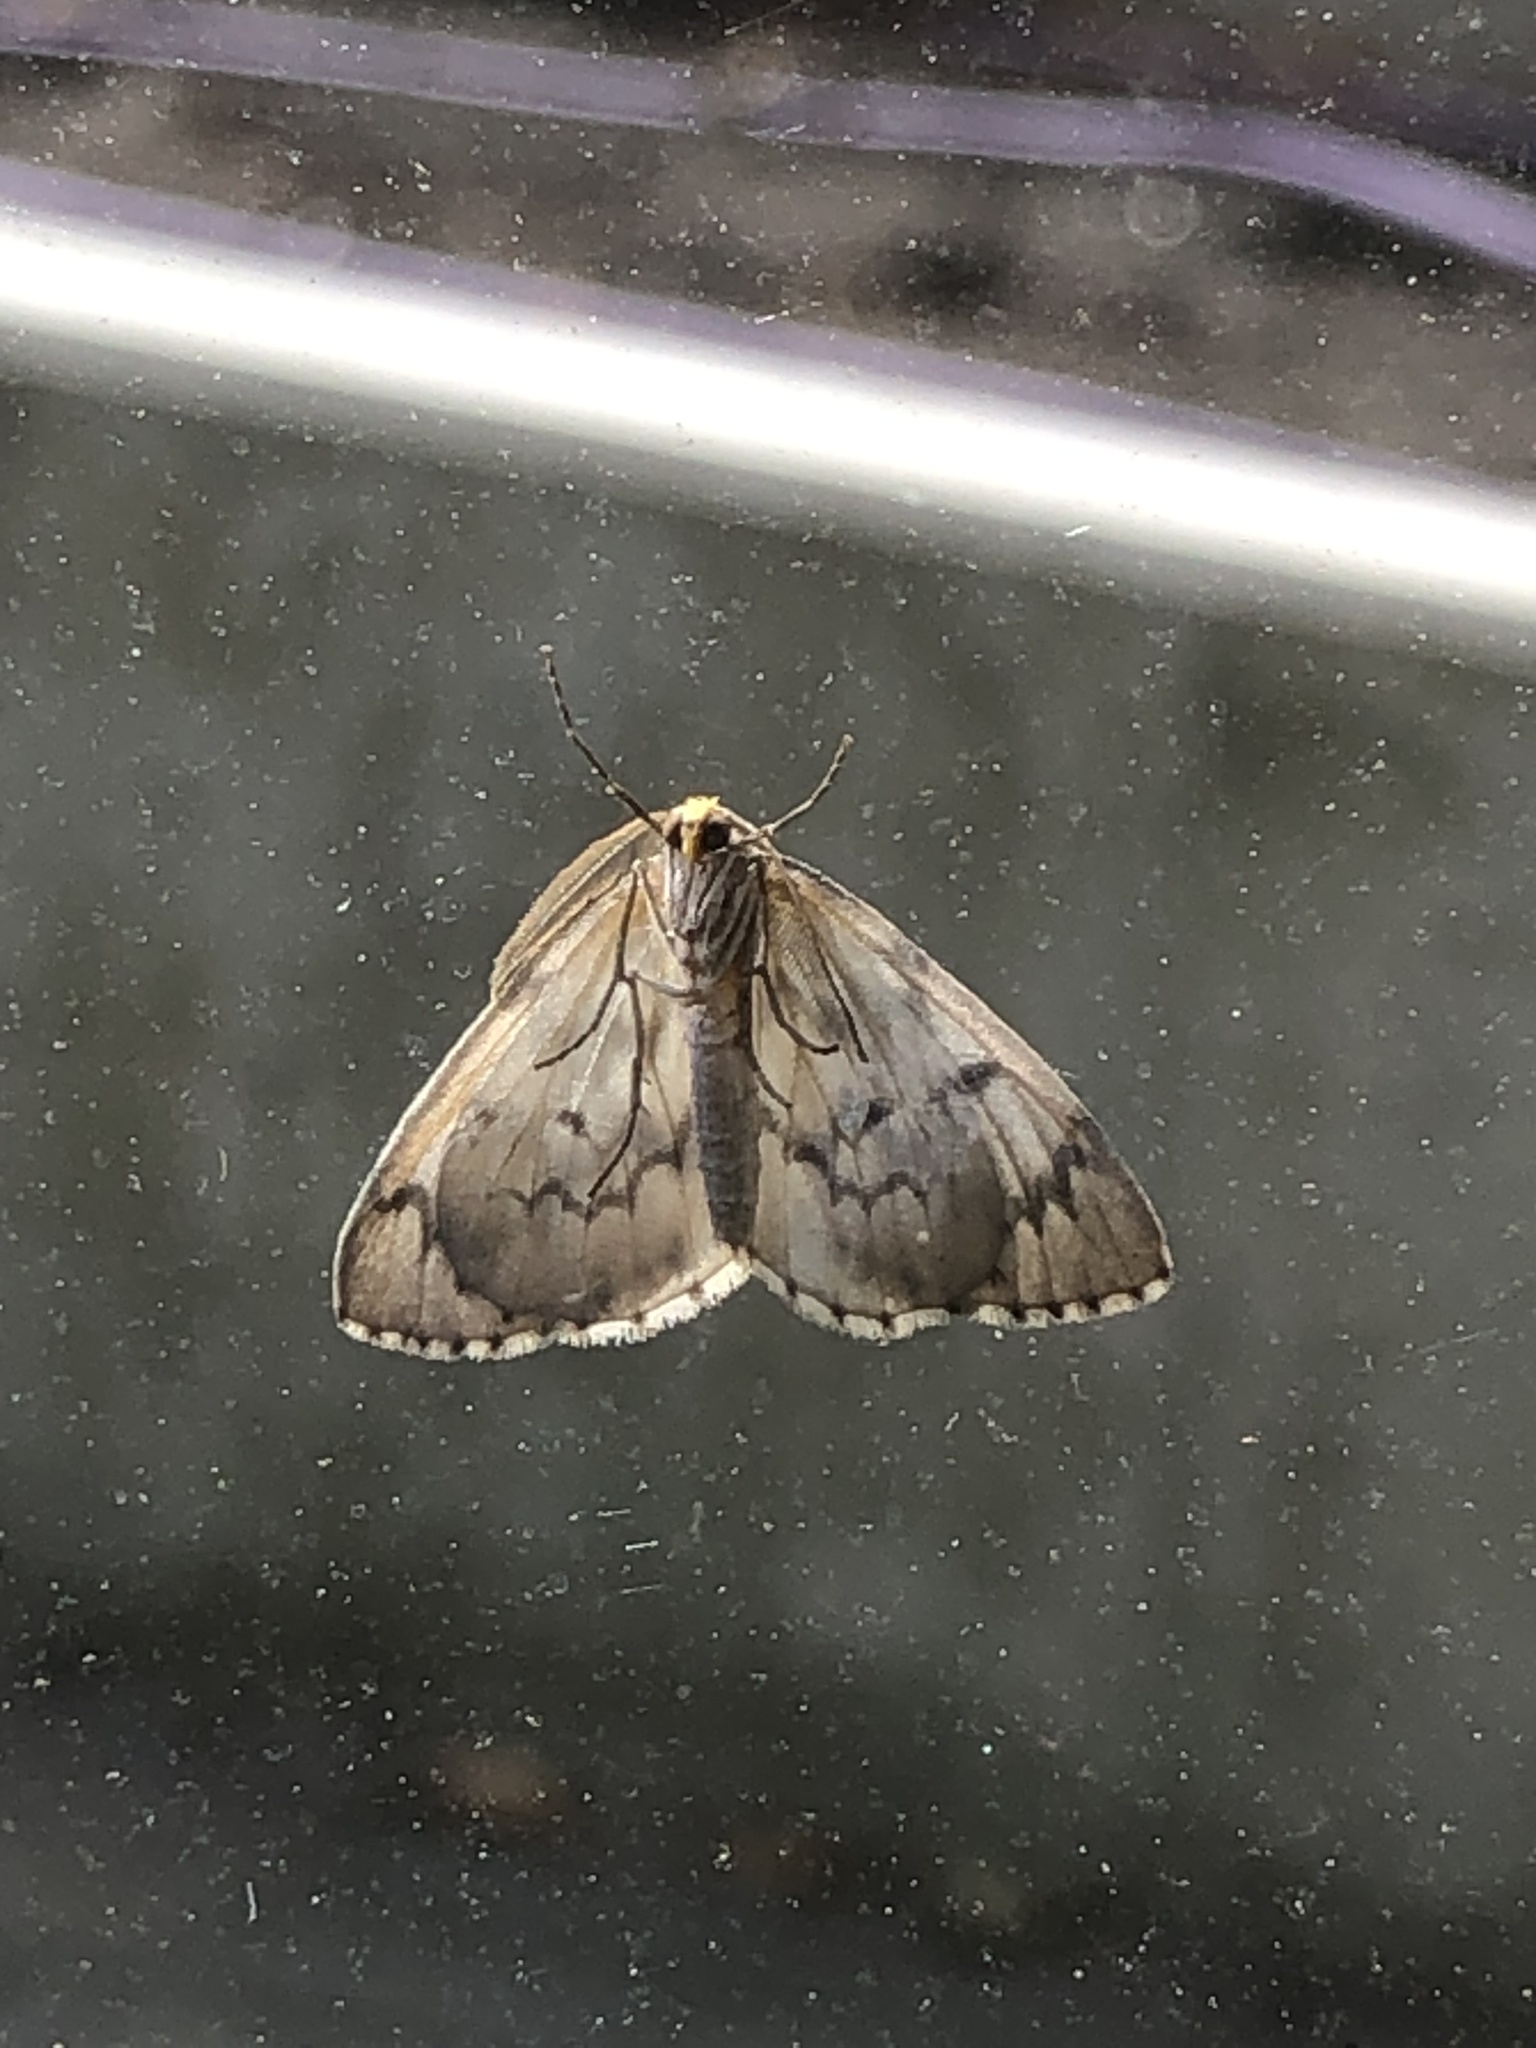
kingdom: Animalia
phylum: Arthropoda
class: Insecta
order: Lepidoptera
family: Geometridae
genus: Nepytia
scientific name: Nepytia phantasmaria
